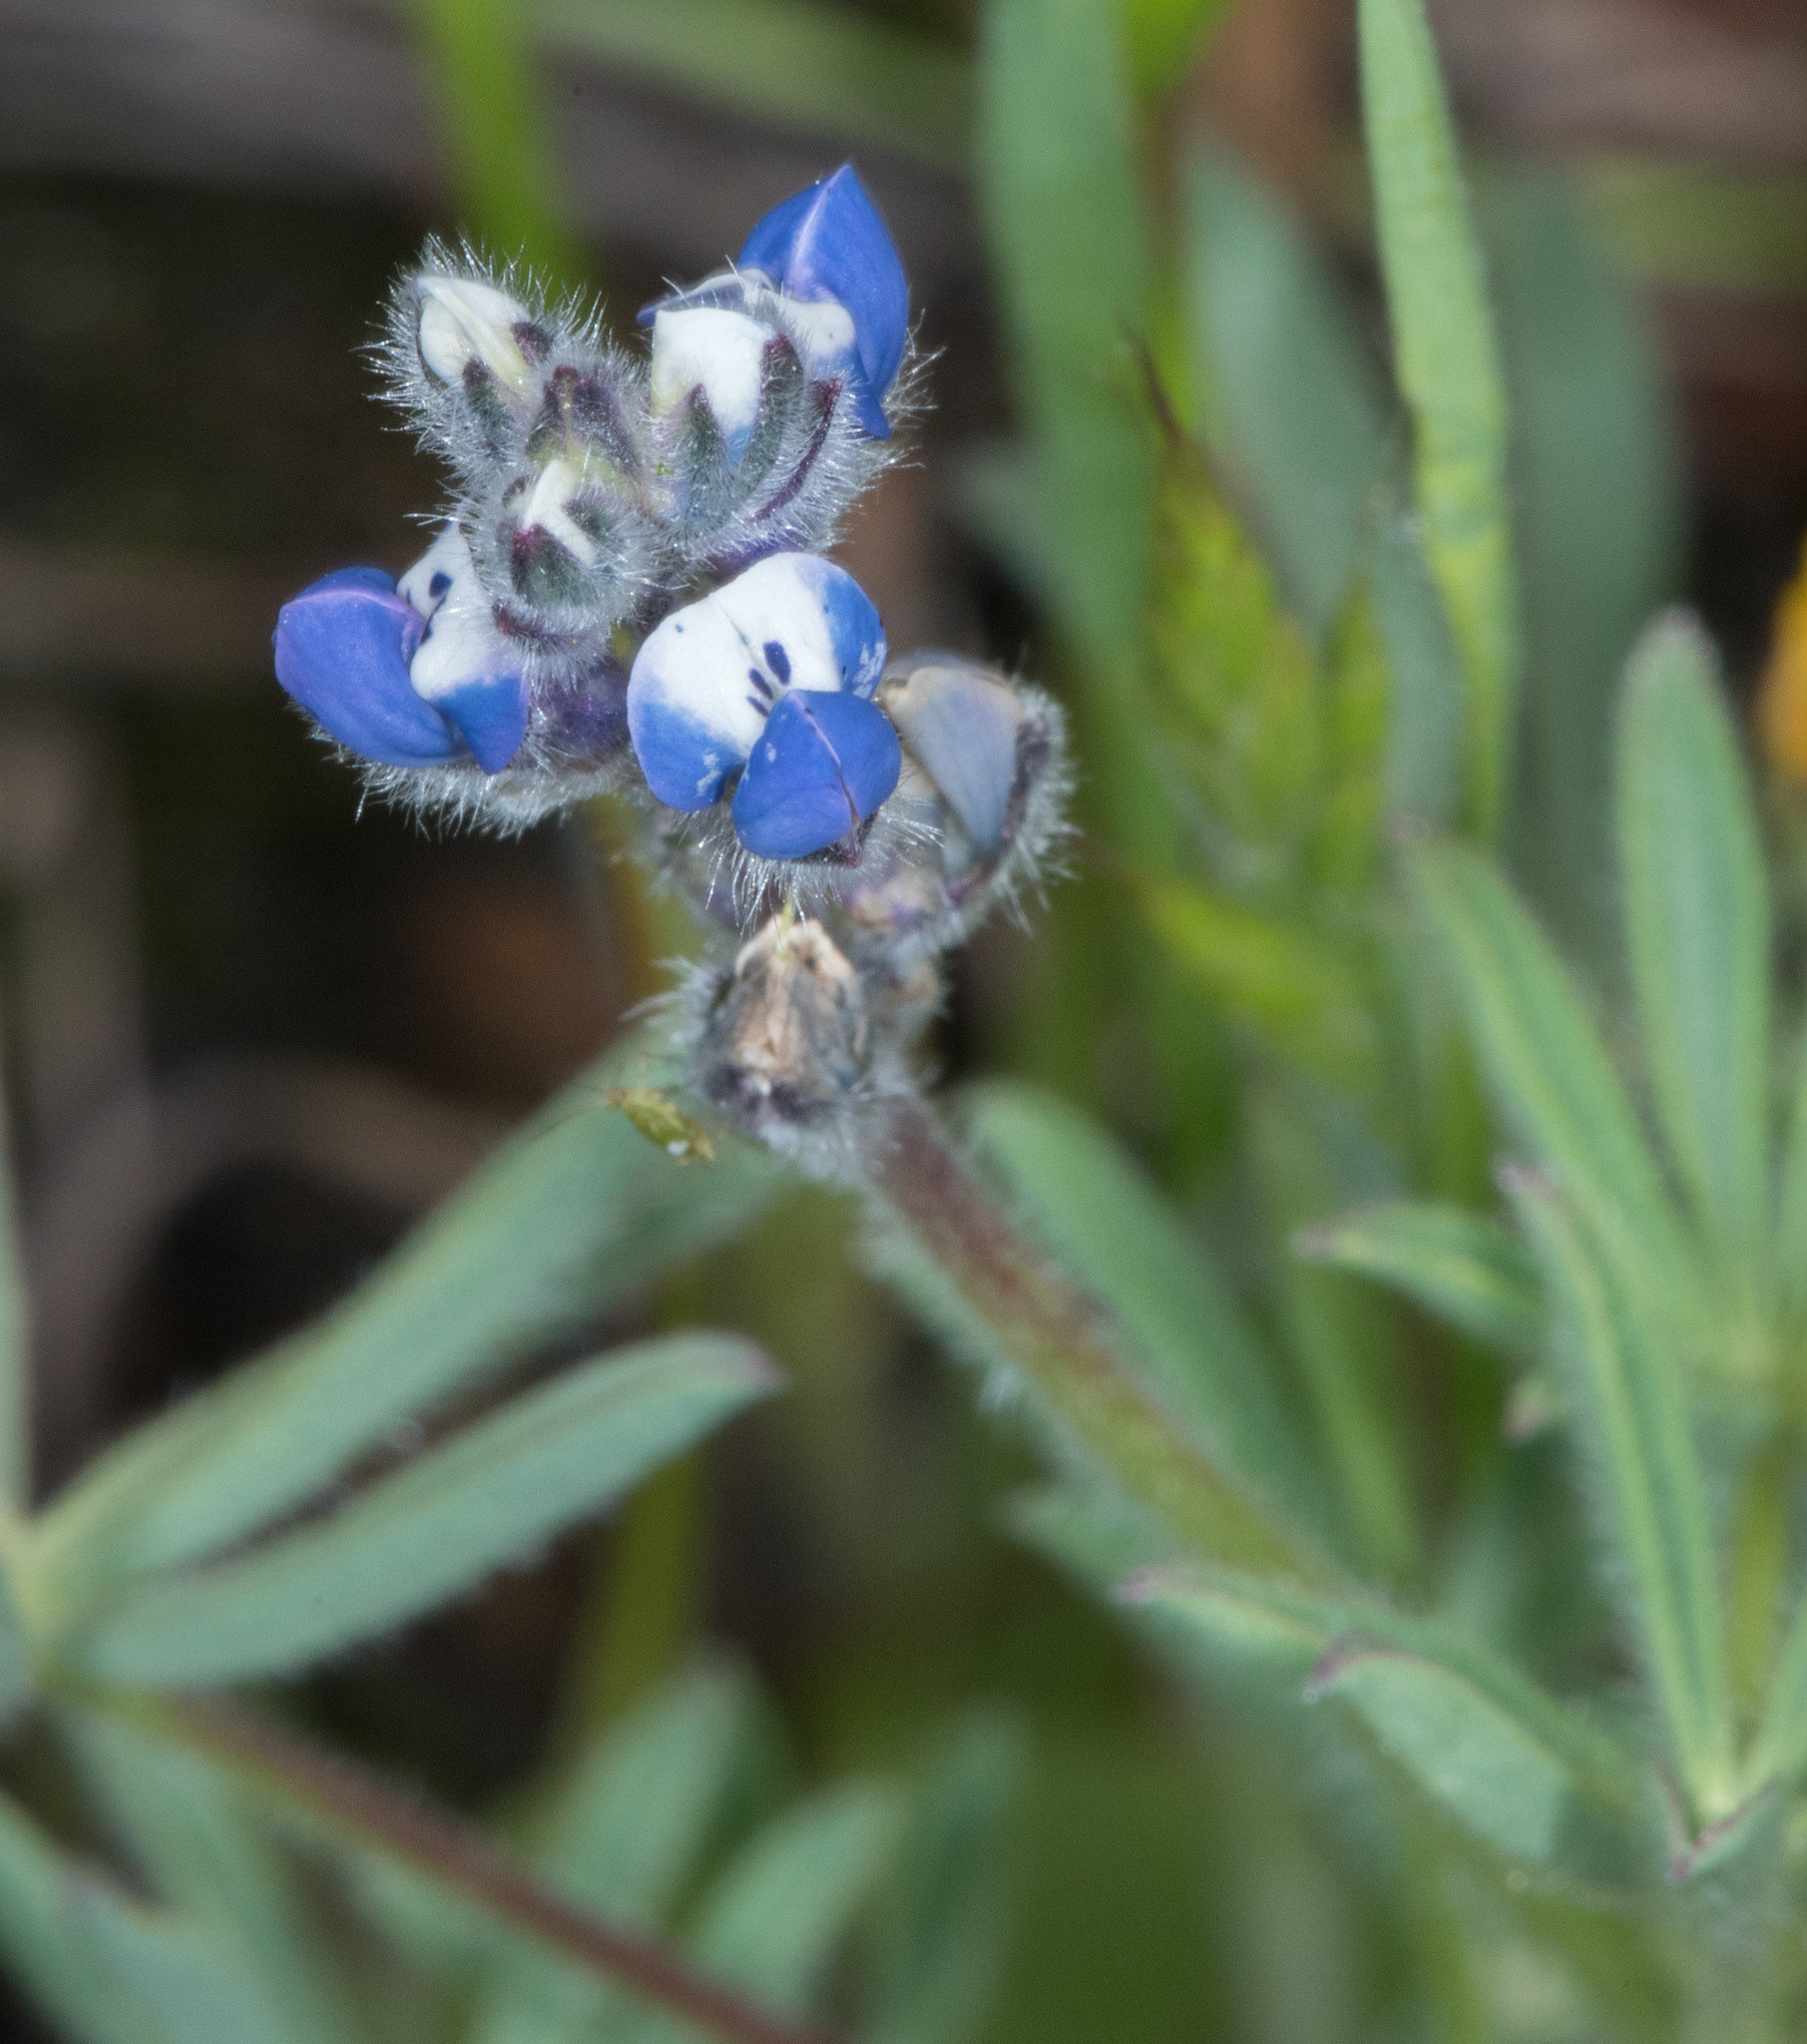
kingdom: Plantae
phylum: Tracheophyta
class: Magnoliopsida
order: Fabales
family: Fabaceae
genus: Lupinus
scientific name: Lupinus bicolor
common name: Miniature lupine
